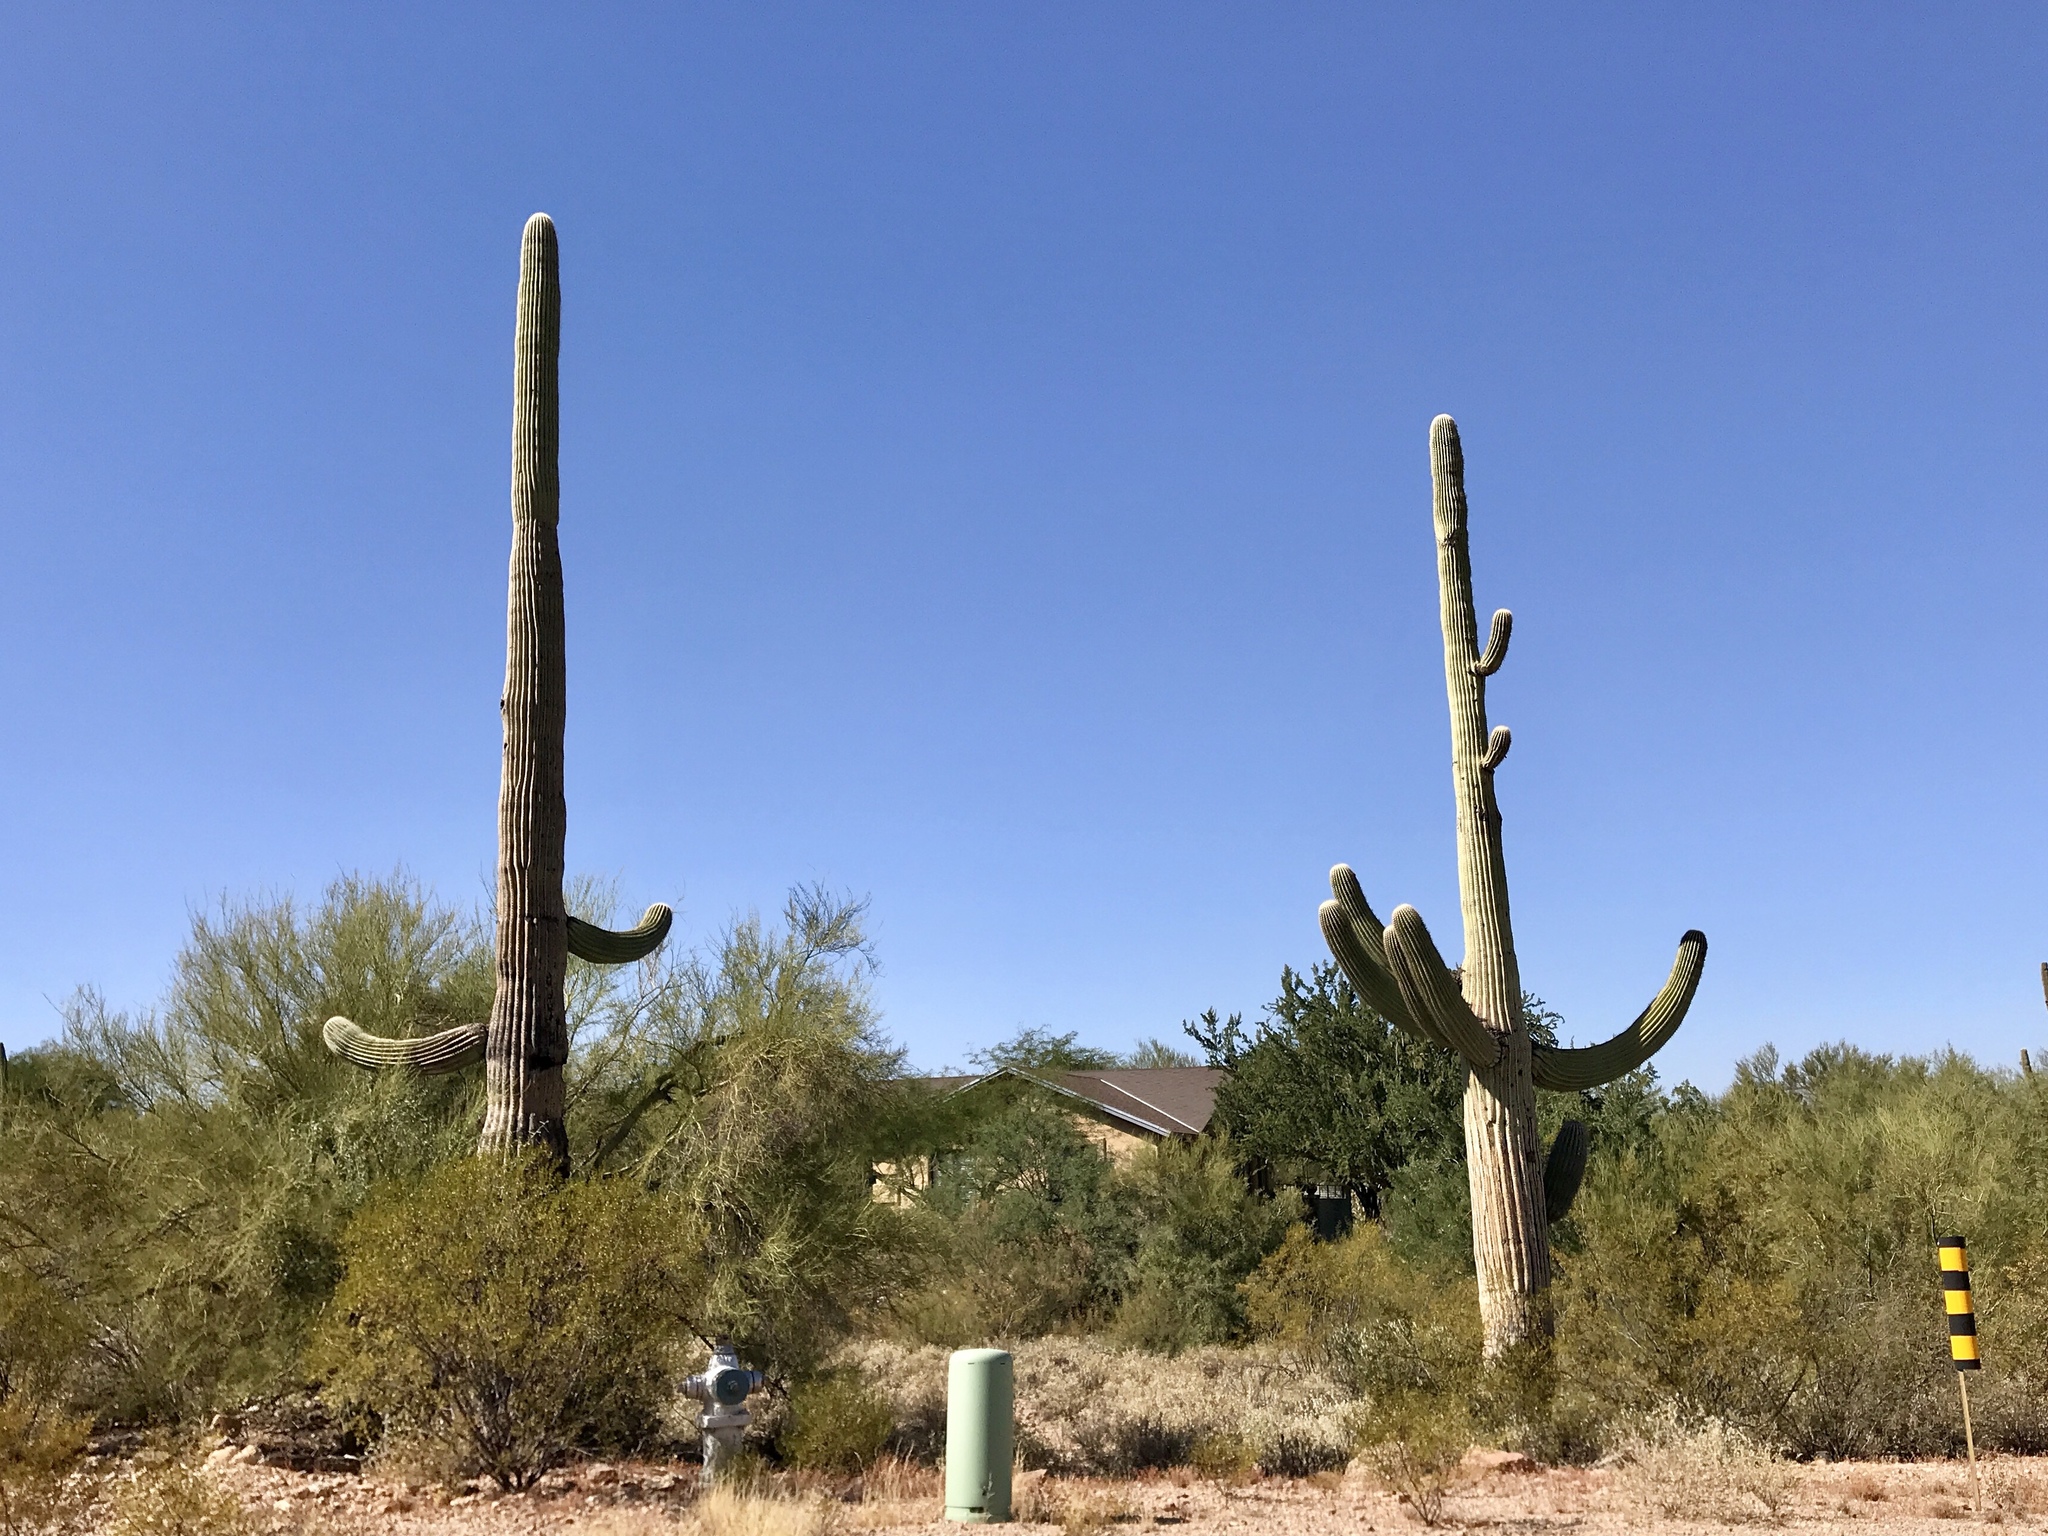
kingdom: Plantae
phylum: Tracheophyta
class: Magnoliopsida
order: Caryophyllales
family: Cactaceae
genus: Carnegiea
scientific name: Carnegiea gigantea
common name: Saguaro
